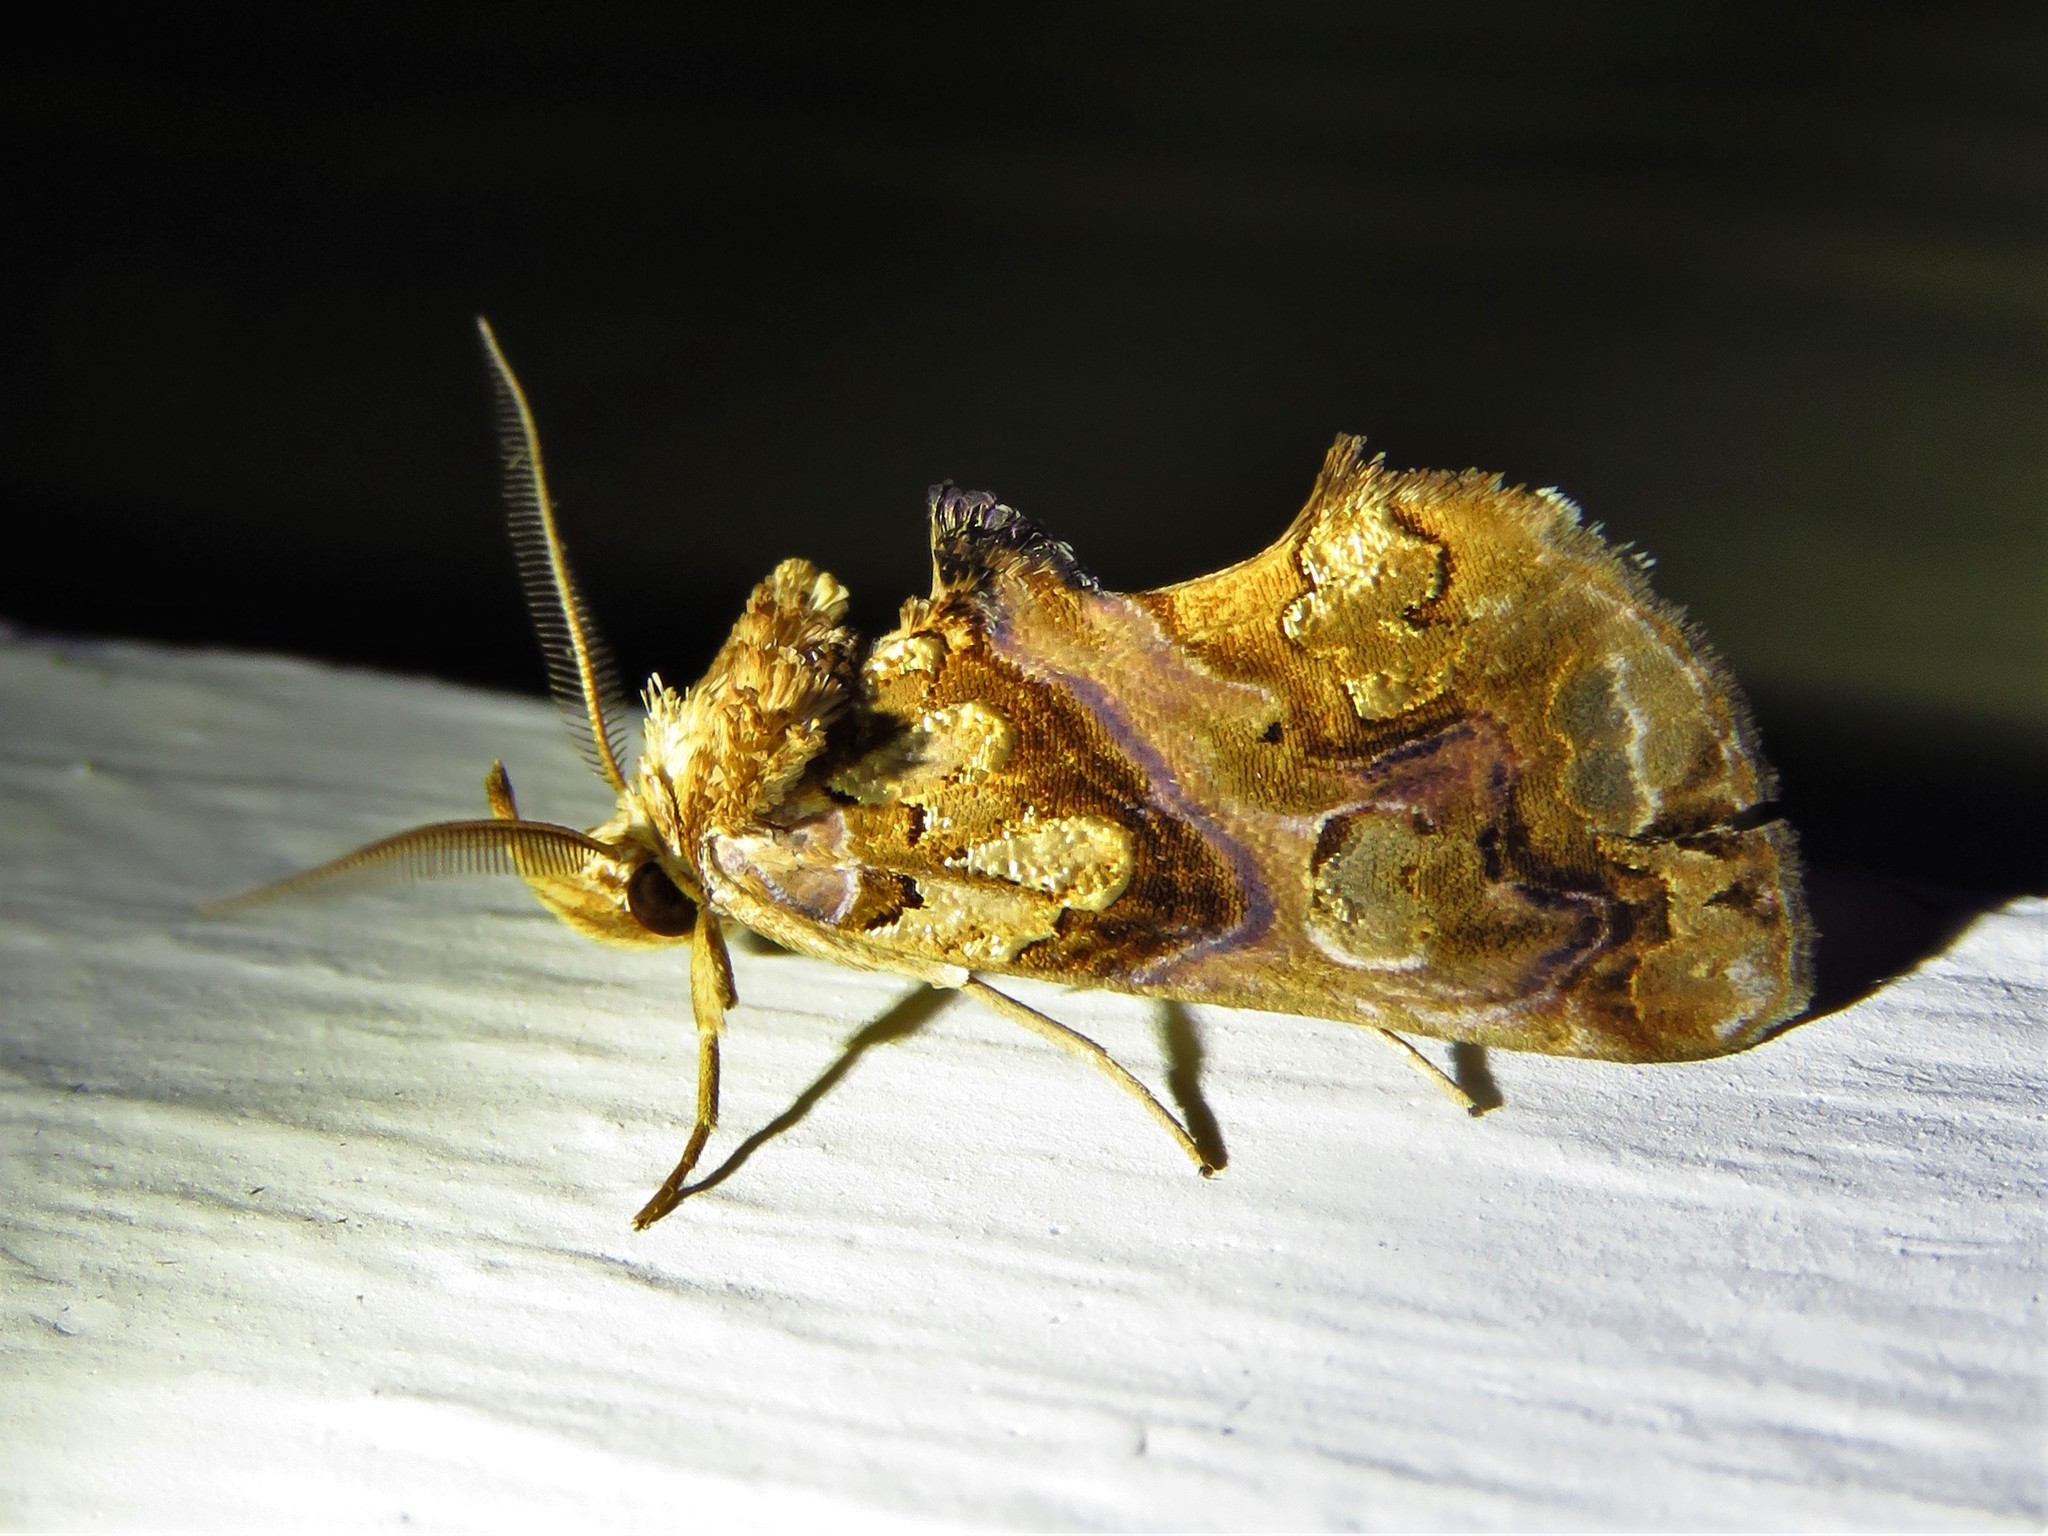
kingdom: Animalia
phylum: Arthropoda
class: Insecta
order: Lepidoptera
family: Erebidae
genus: Plusiodonta
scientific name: Plusiodonta compressipalpis
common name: Moonseed moth
